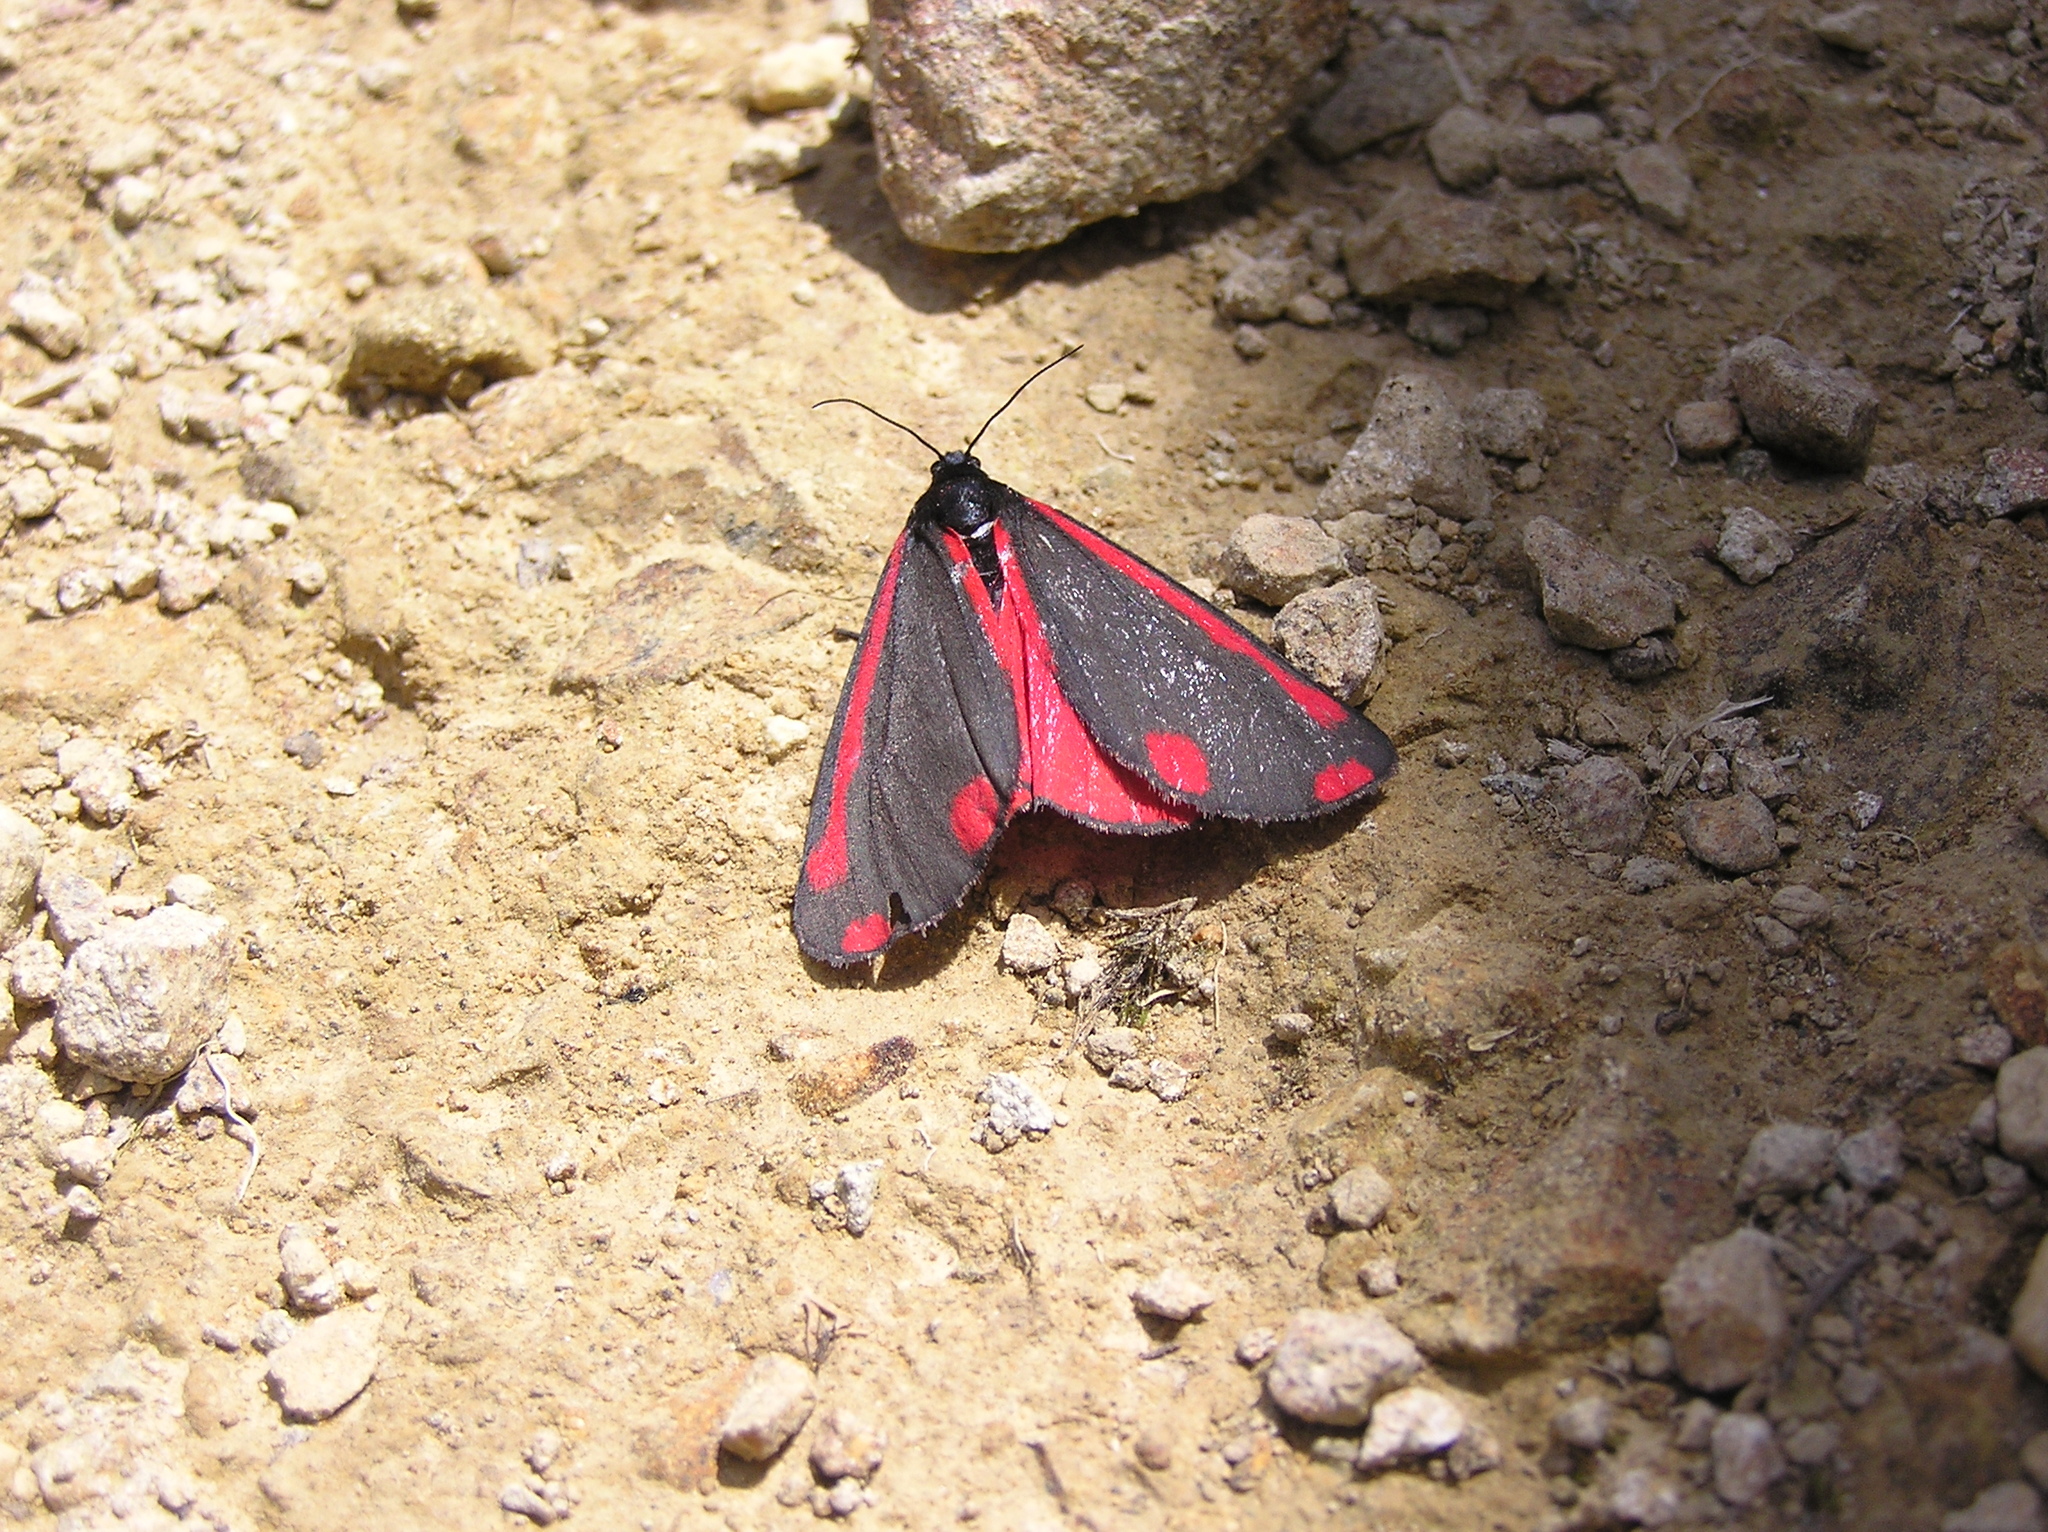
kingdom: Animalia
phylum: Arthropoda
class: Insecta
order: Lepidoptera
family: Erebidae
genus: Tyria
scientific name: Tyria jacobaeae
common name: Cinnabar
